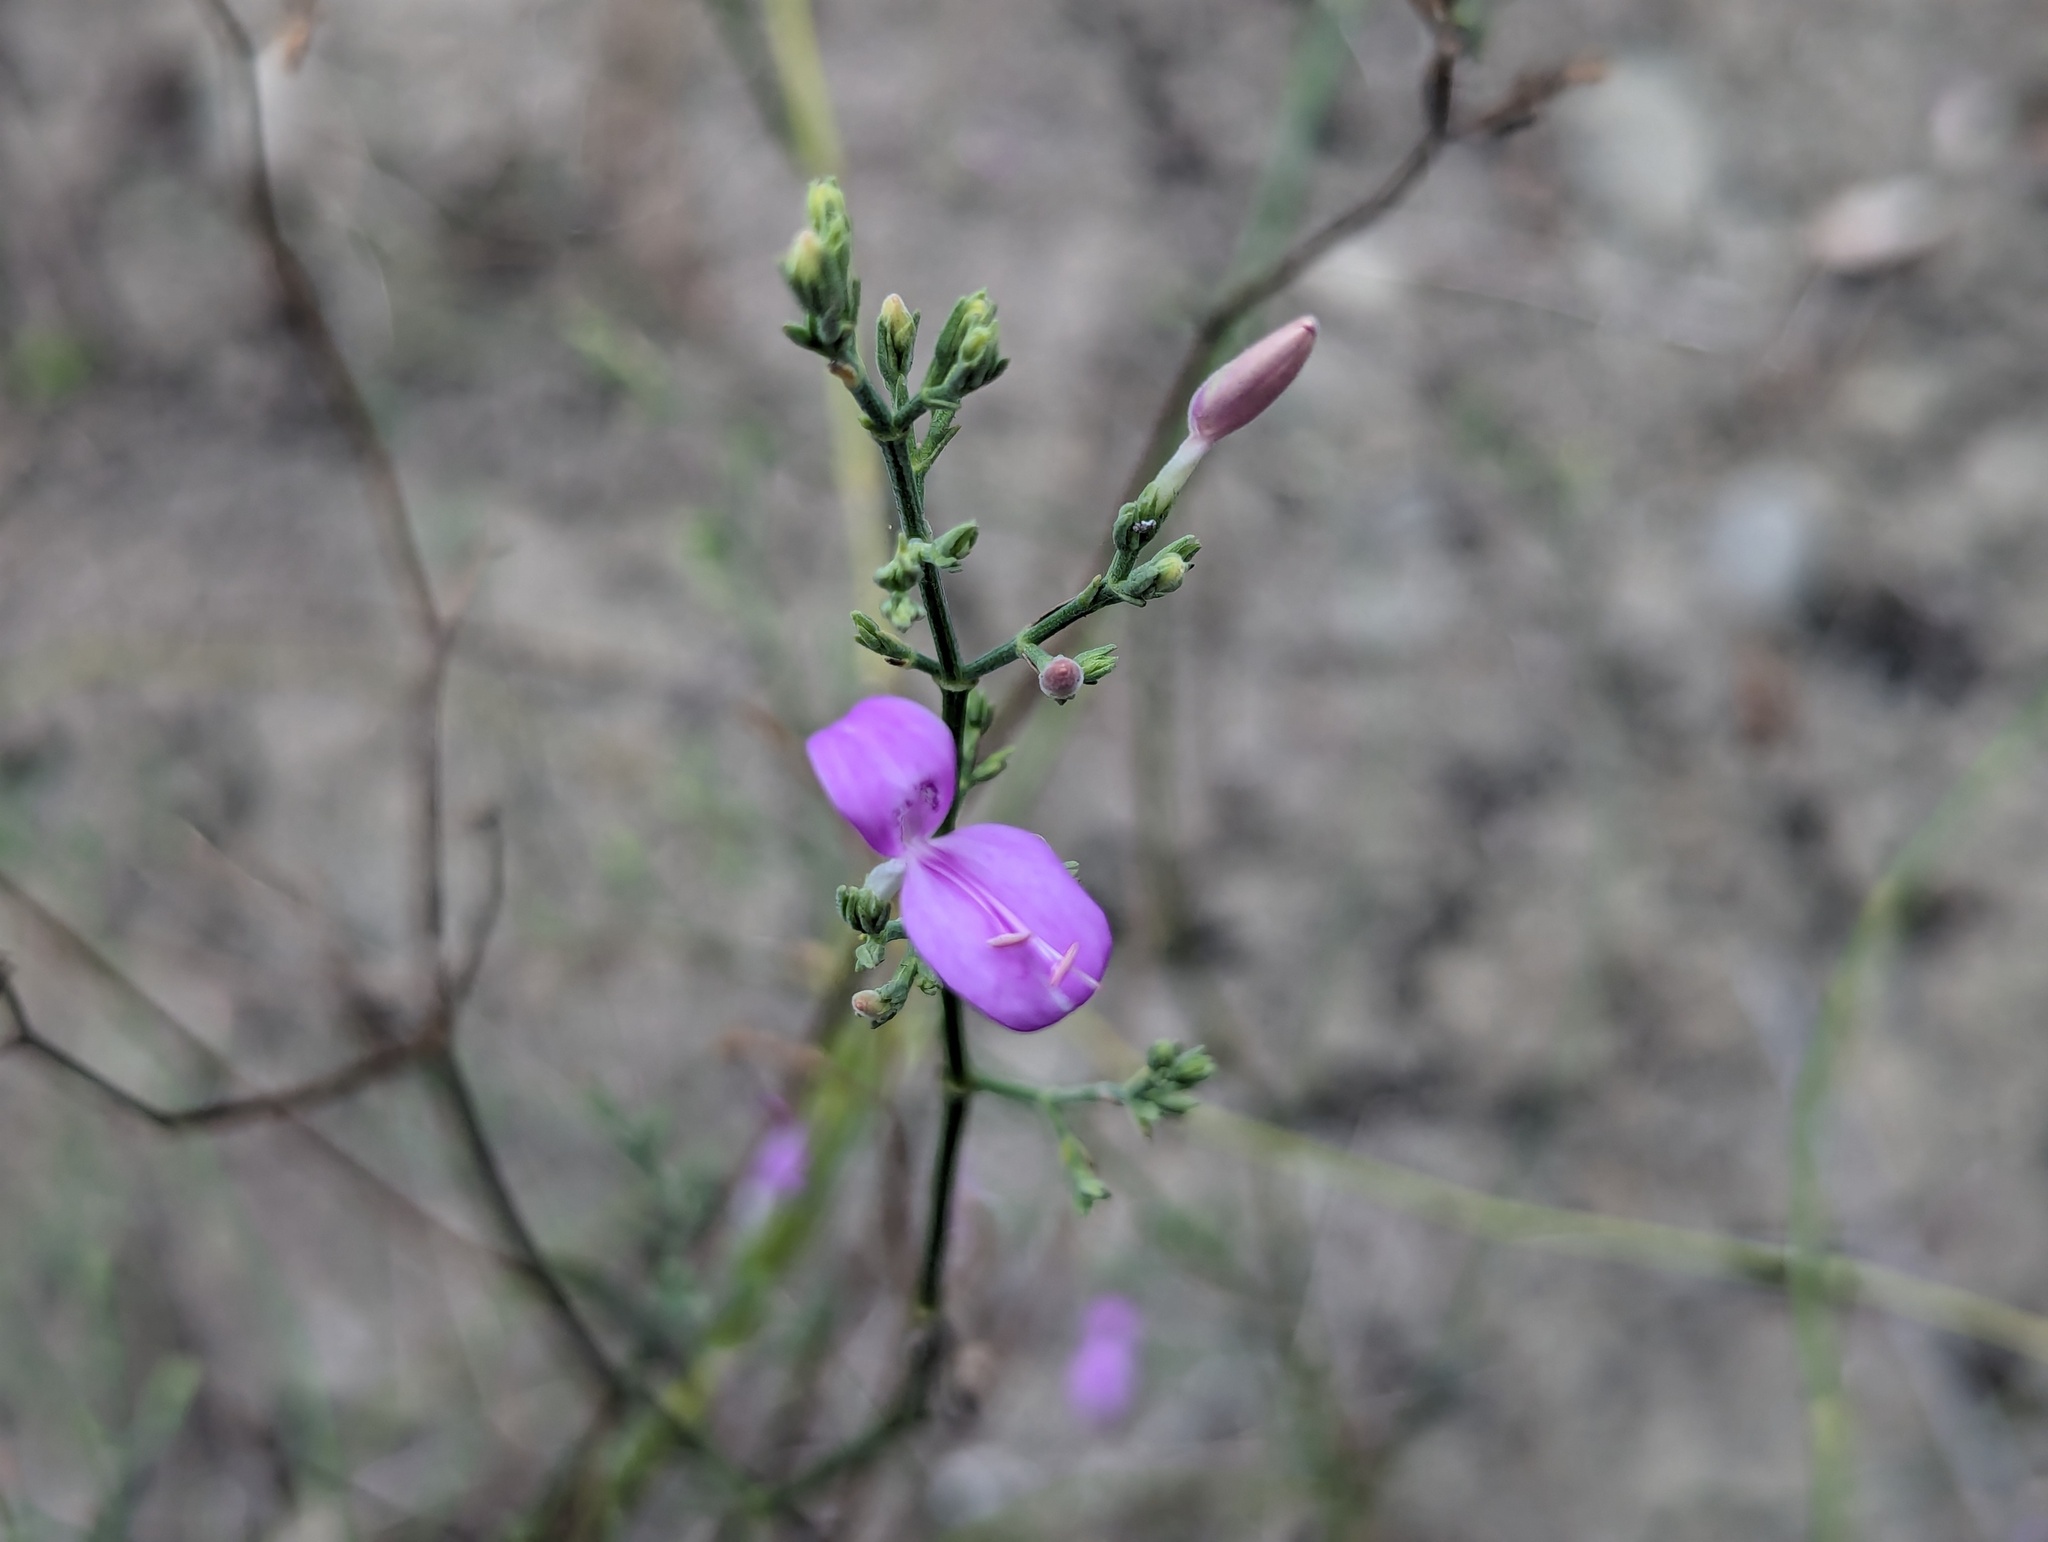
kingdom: Plantae
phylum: Tracheophyta
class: Magnoliopsida
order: Lamiales
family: Acanthaceae
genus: Hypoestes
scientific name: Hypoestes cumingiana
